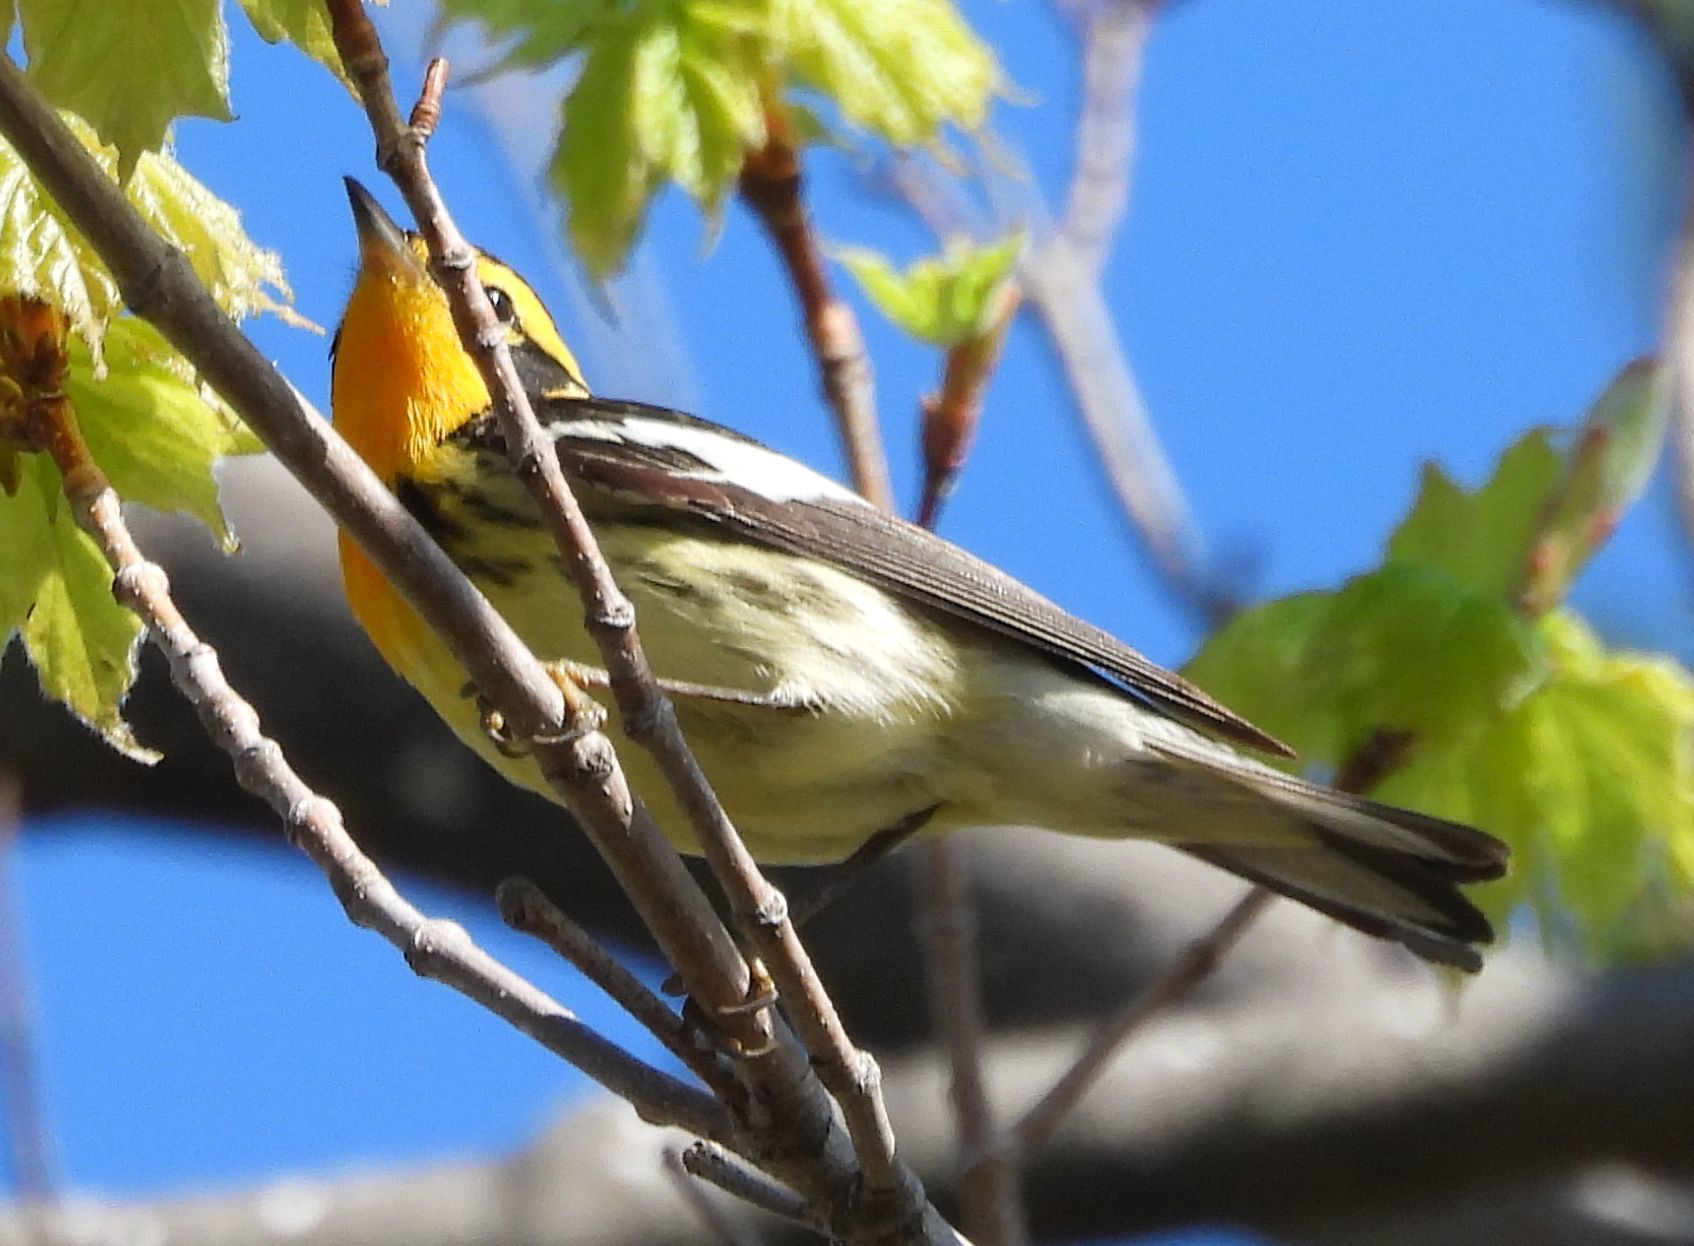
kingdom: Animalia
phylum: Chordata
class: Aves
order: Passeriformes
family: Parulidae
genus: Setophaga
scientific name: Setophaga fusca
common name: Blackburnian warbler
